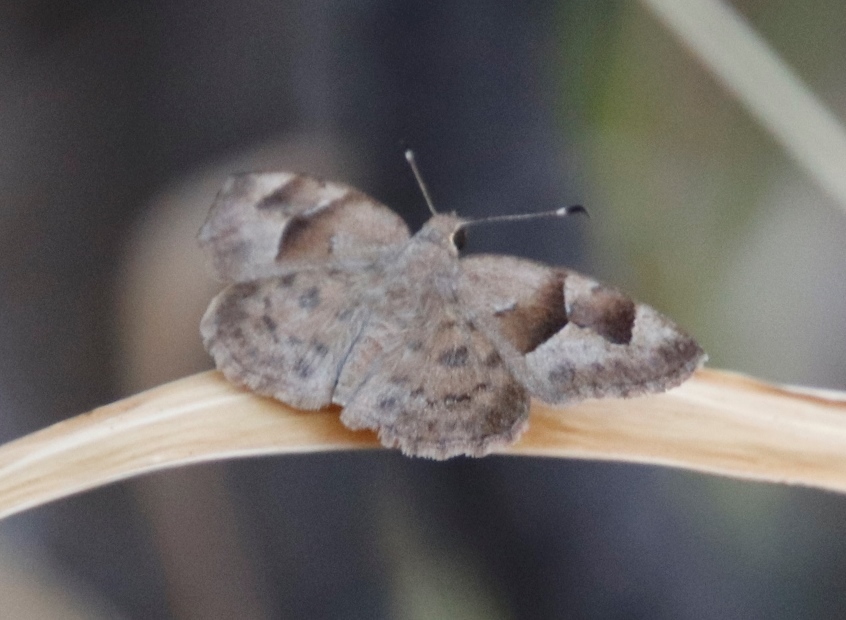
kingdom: Animalia
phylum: Arthropoda
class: Insecta
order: Lepidoptera
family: Hesperiidae
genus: Sarangesa
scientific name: Sarangesa phidyle
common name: Small elfin
